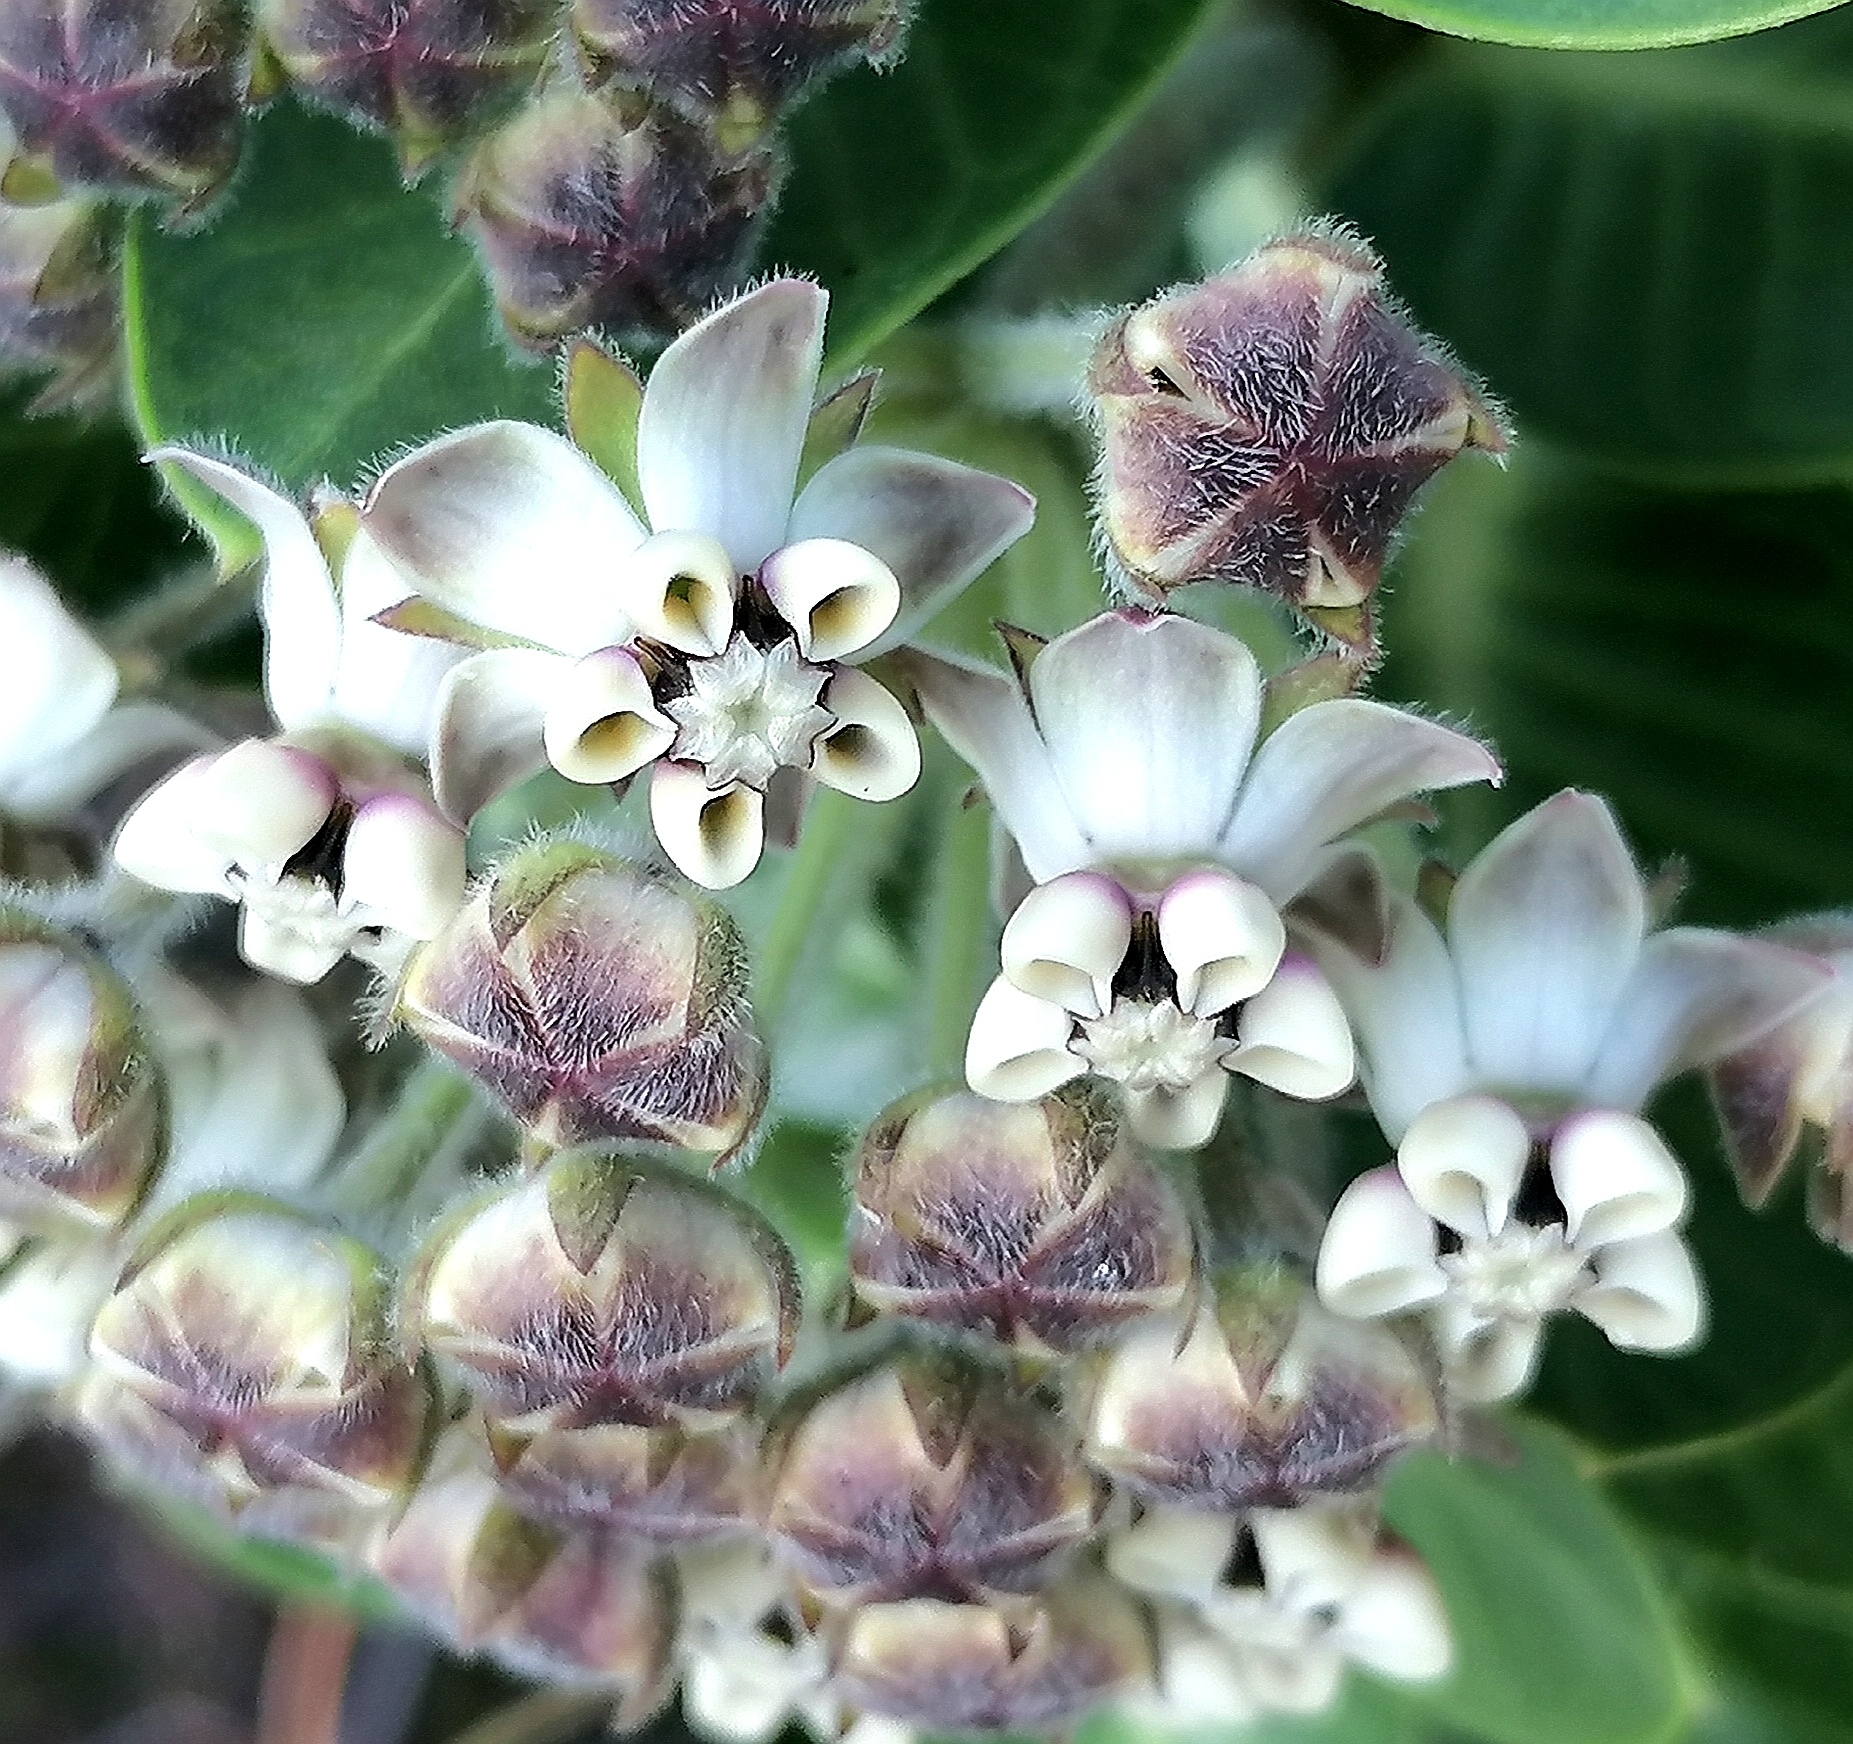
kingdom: Plantae
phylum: Tracheophyta
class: Magnoliopsida
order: Gentianales
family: Apocynaceae
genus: Gomphocarpus
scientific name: Gomphocarpus cancellatus
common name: Wild cotton
